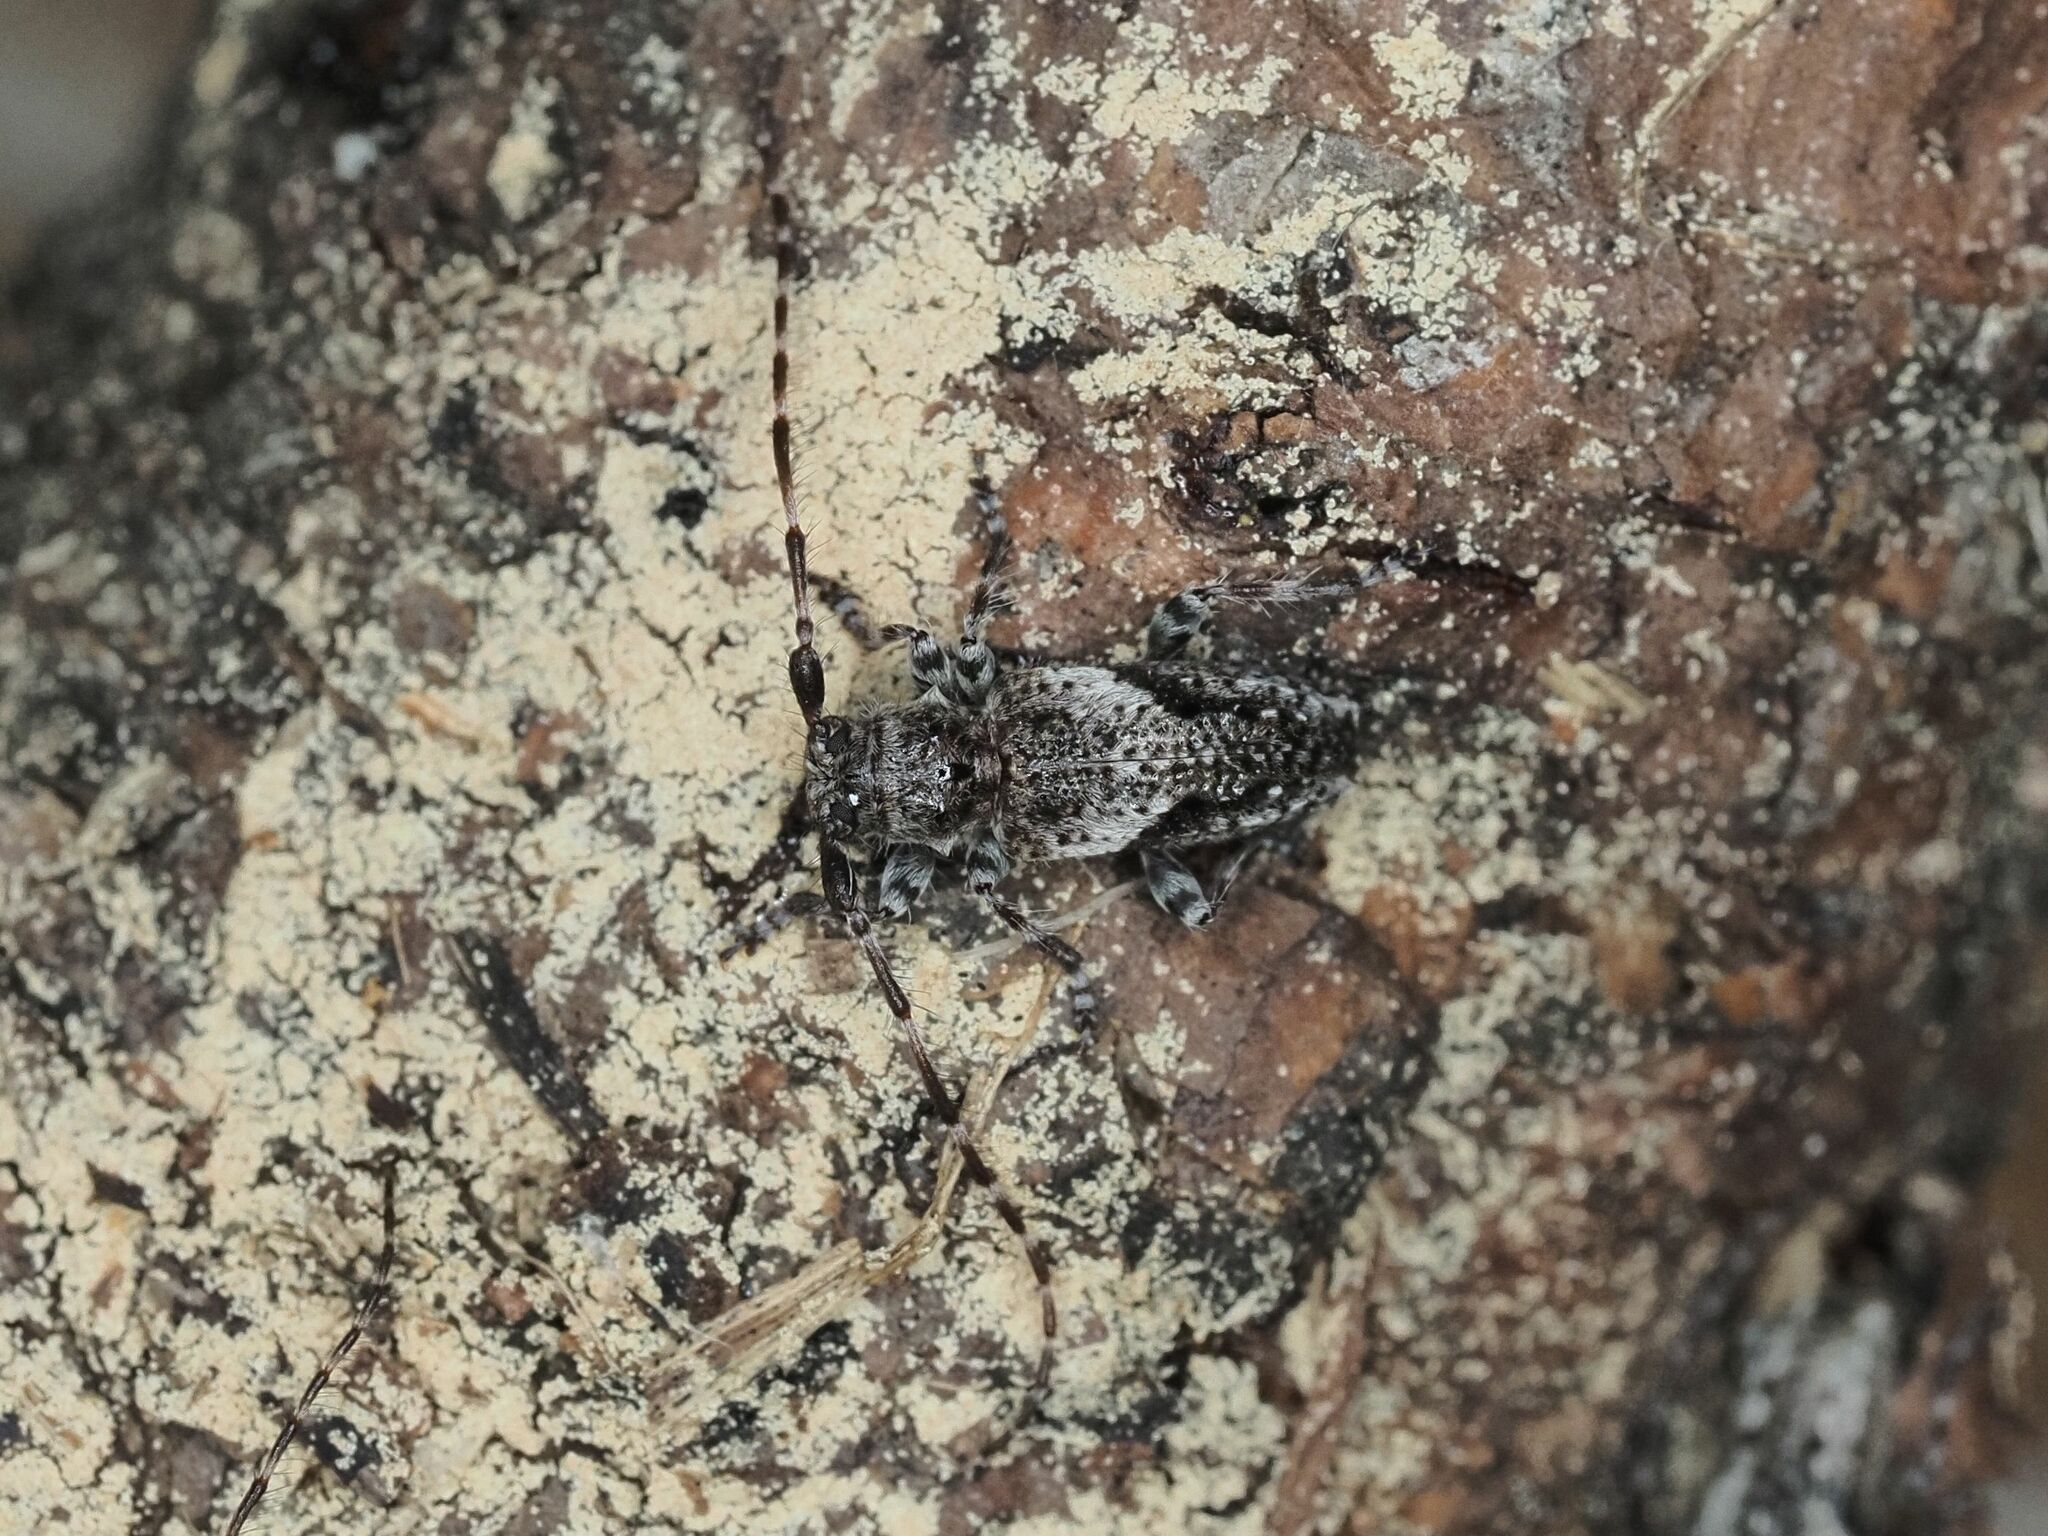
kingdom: Animalia
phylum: Arthropoda
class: Insecta
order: Coleoptera
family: Cerambycidae
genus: Pogonocherus
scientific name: Pogonocherus decoratus
